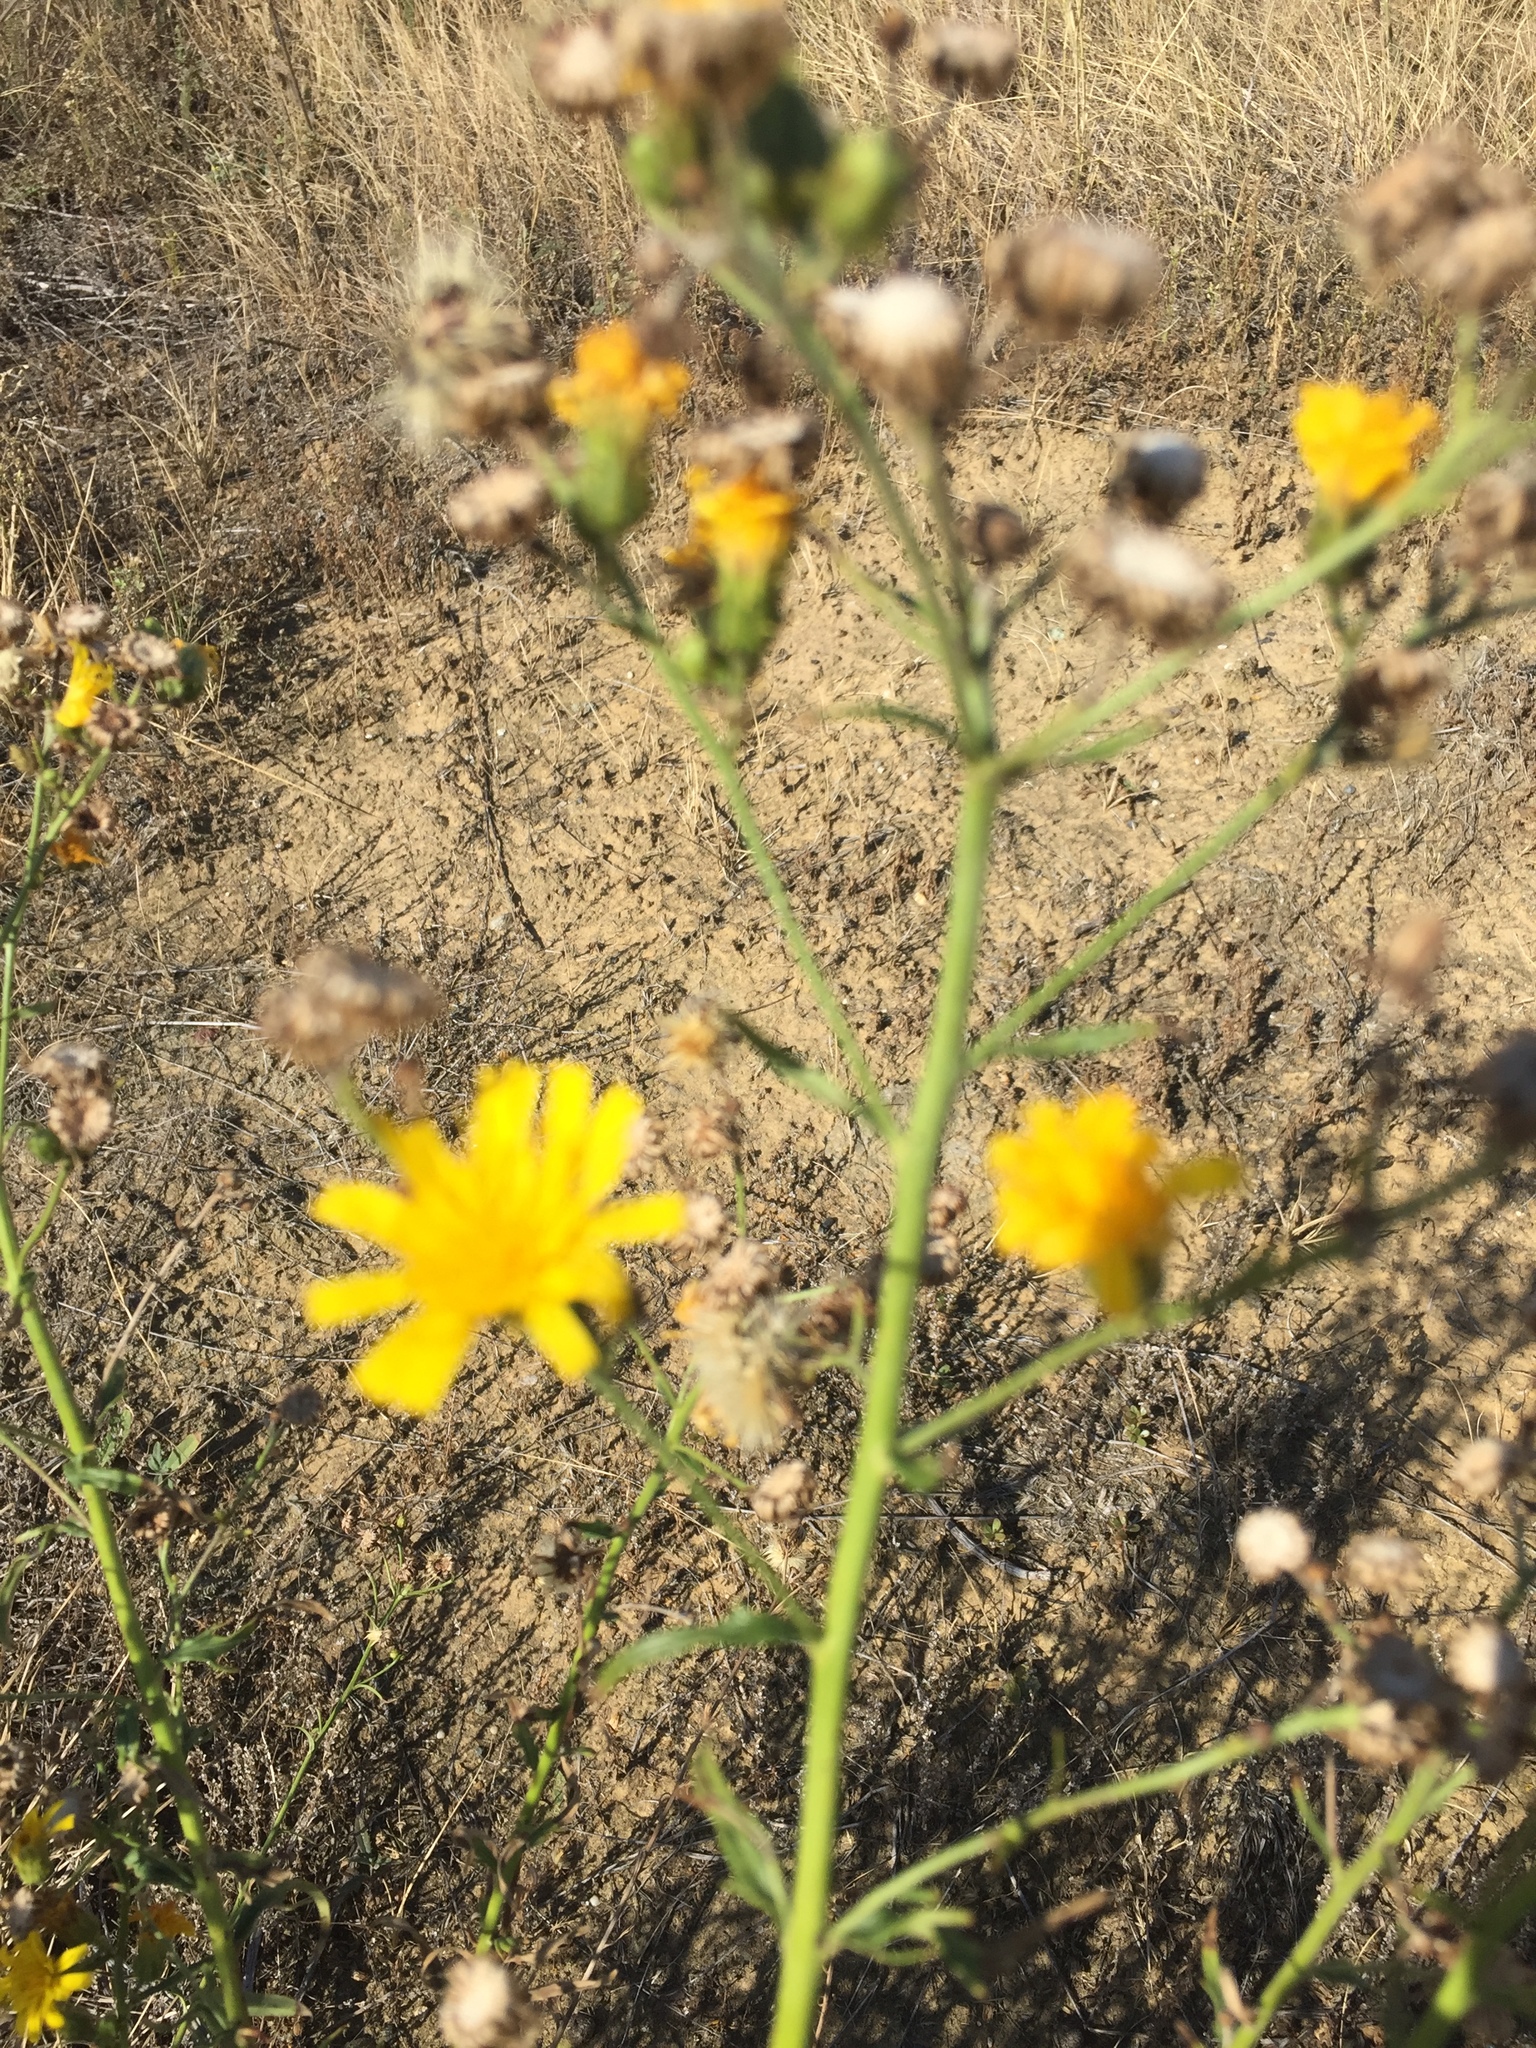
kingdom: Plantae
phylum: Tracheophyta
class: Magnoliopsida
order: Asterales
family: Asteraceae
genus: Hieracium
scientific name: Hieracium umbellatum
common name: Northern hawkweed
